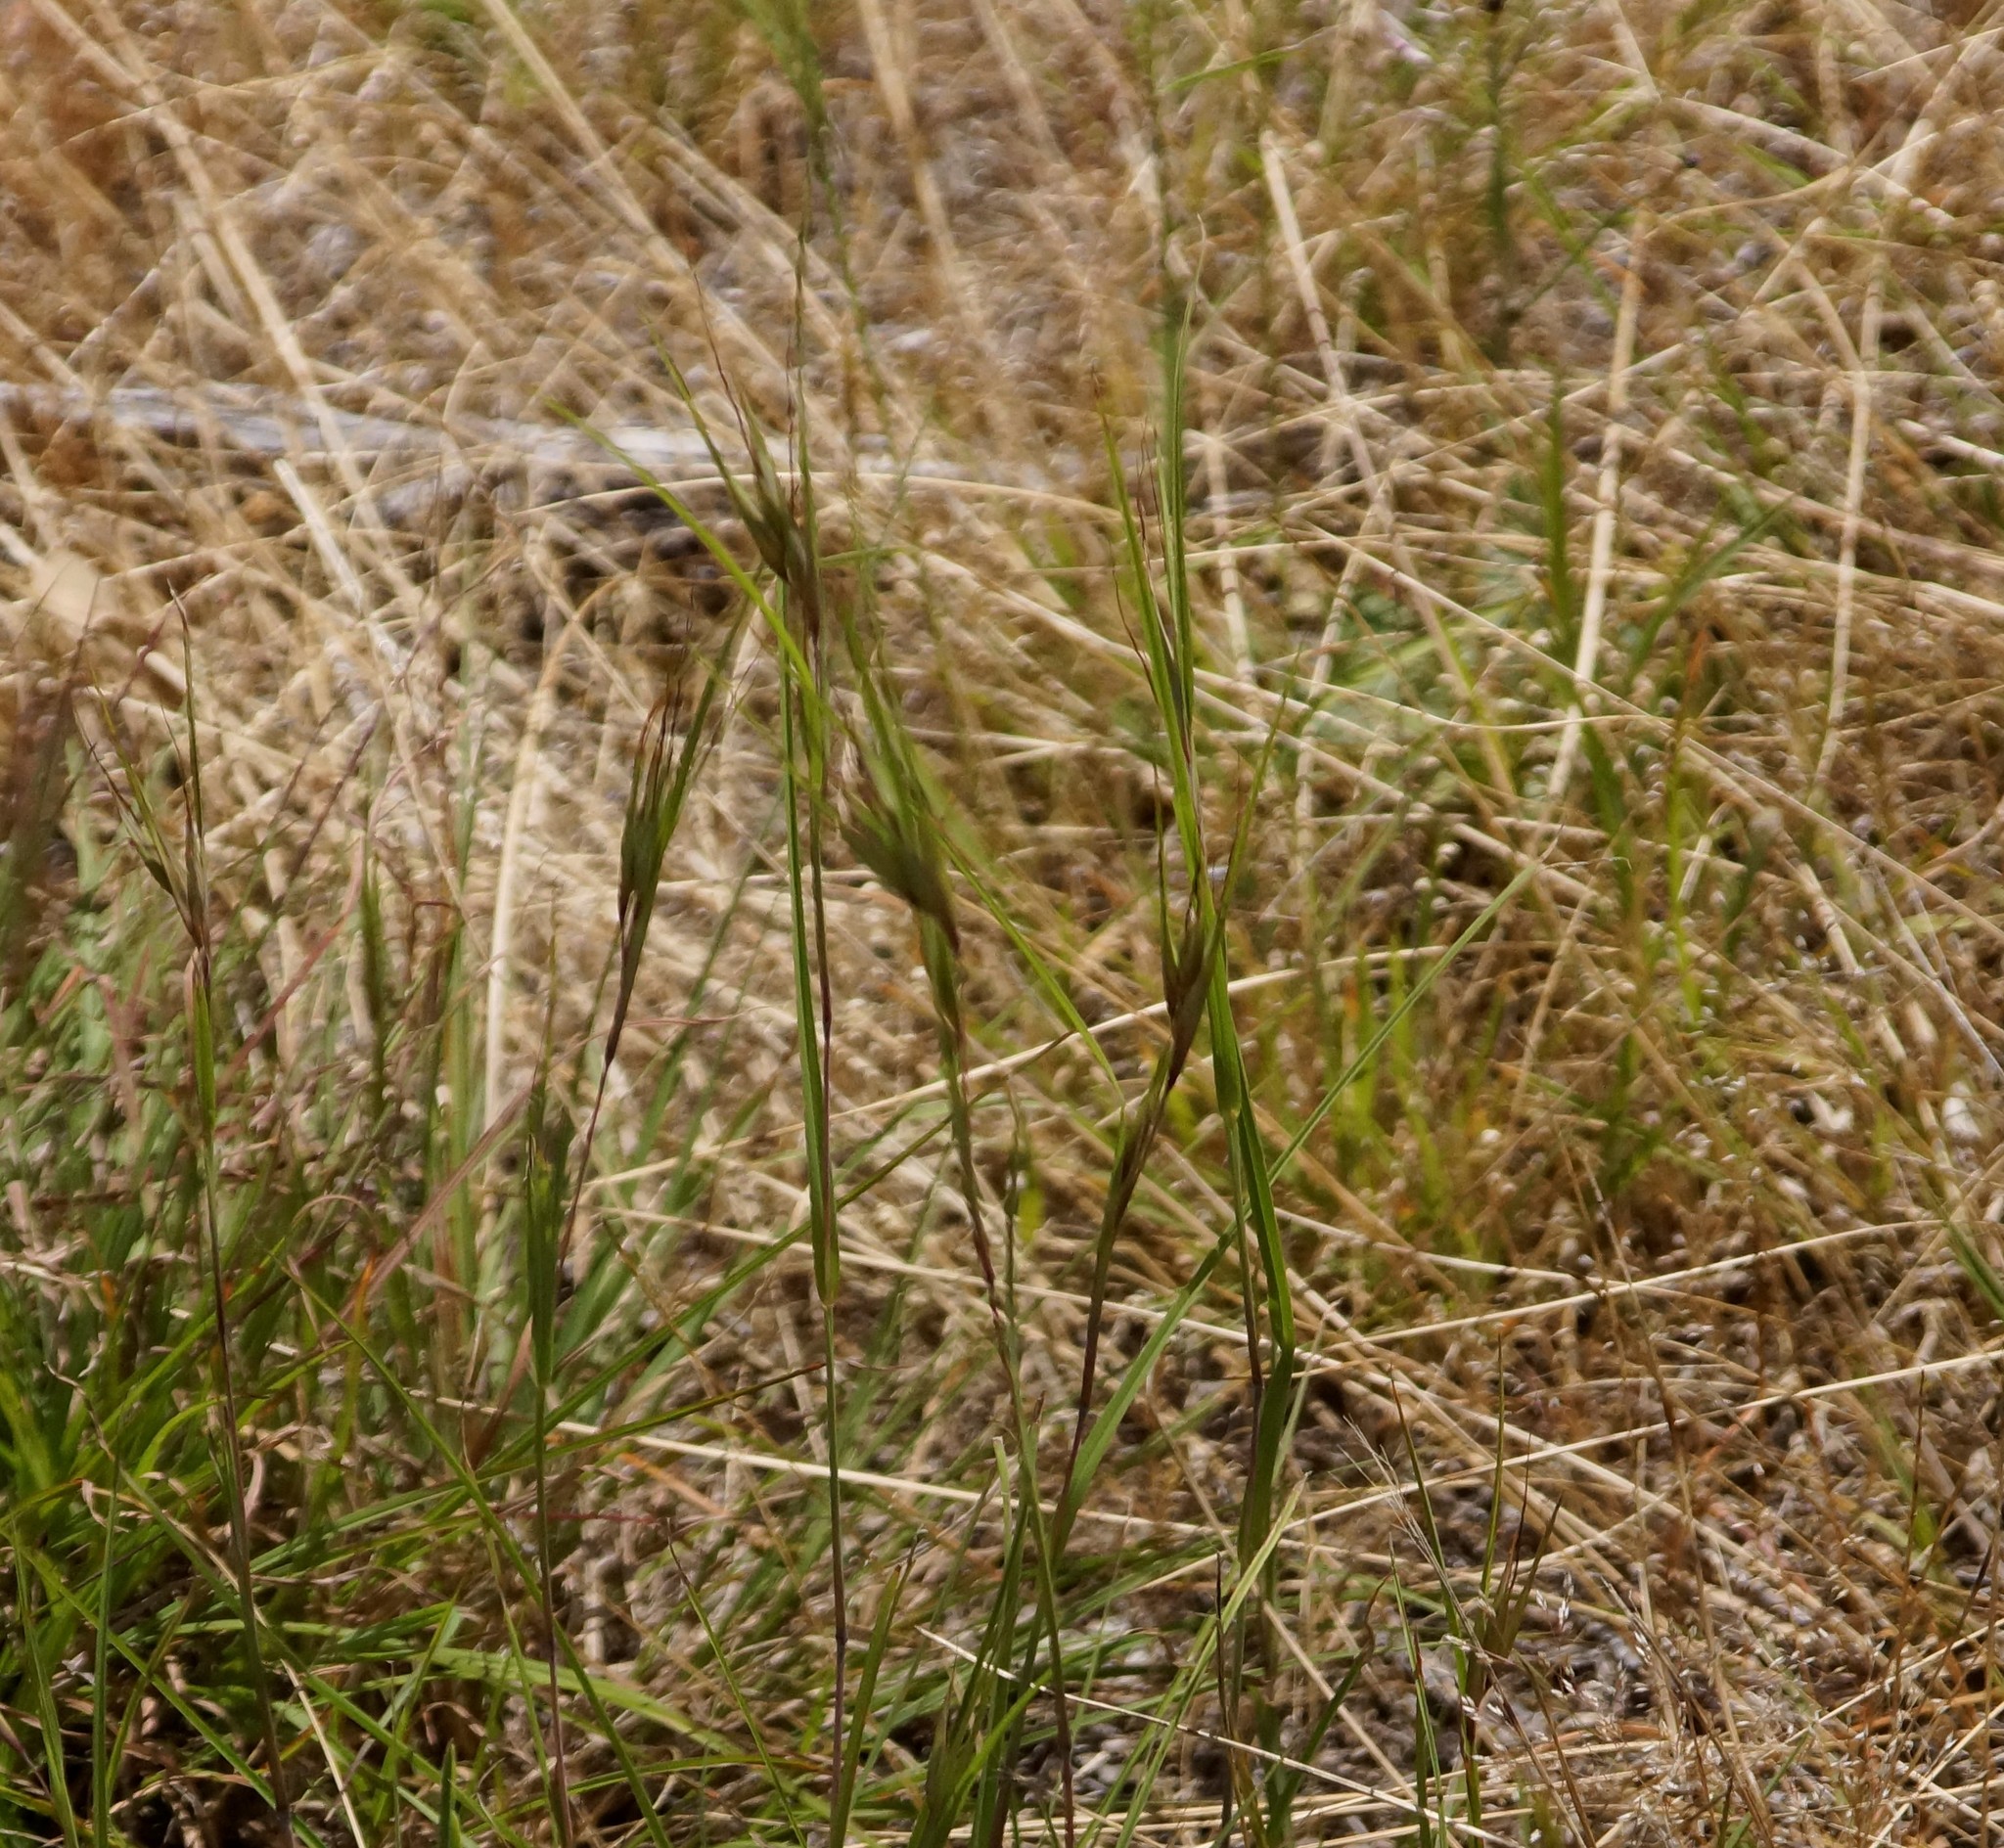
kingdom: Plantae
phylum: Tracheophyta
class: Liliopsida
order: Poales
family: Poaceae
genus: Themeda
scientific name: Themeda triandra
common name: Kangaroo grass
